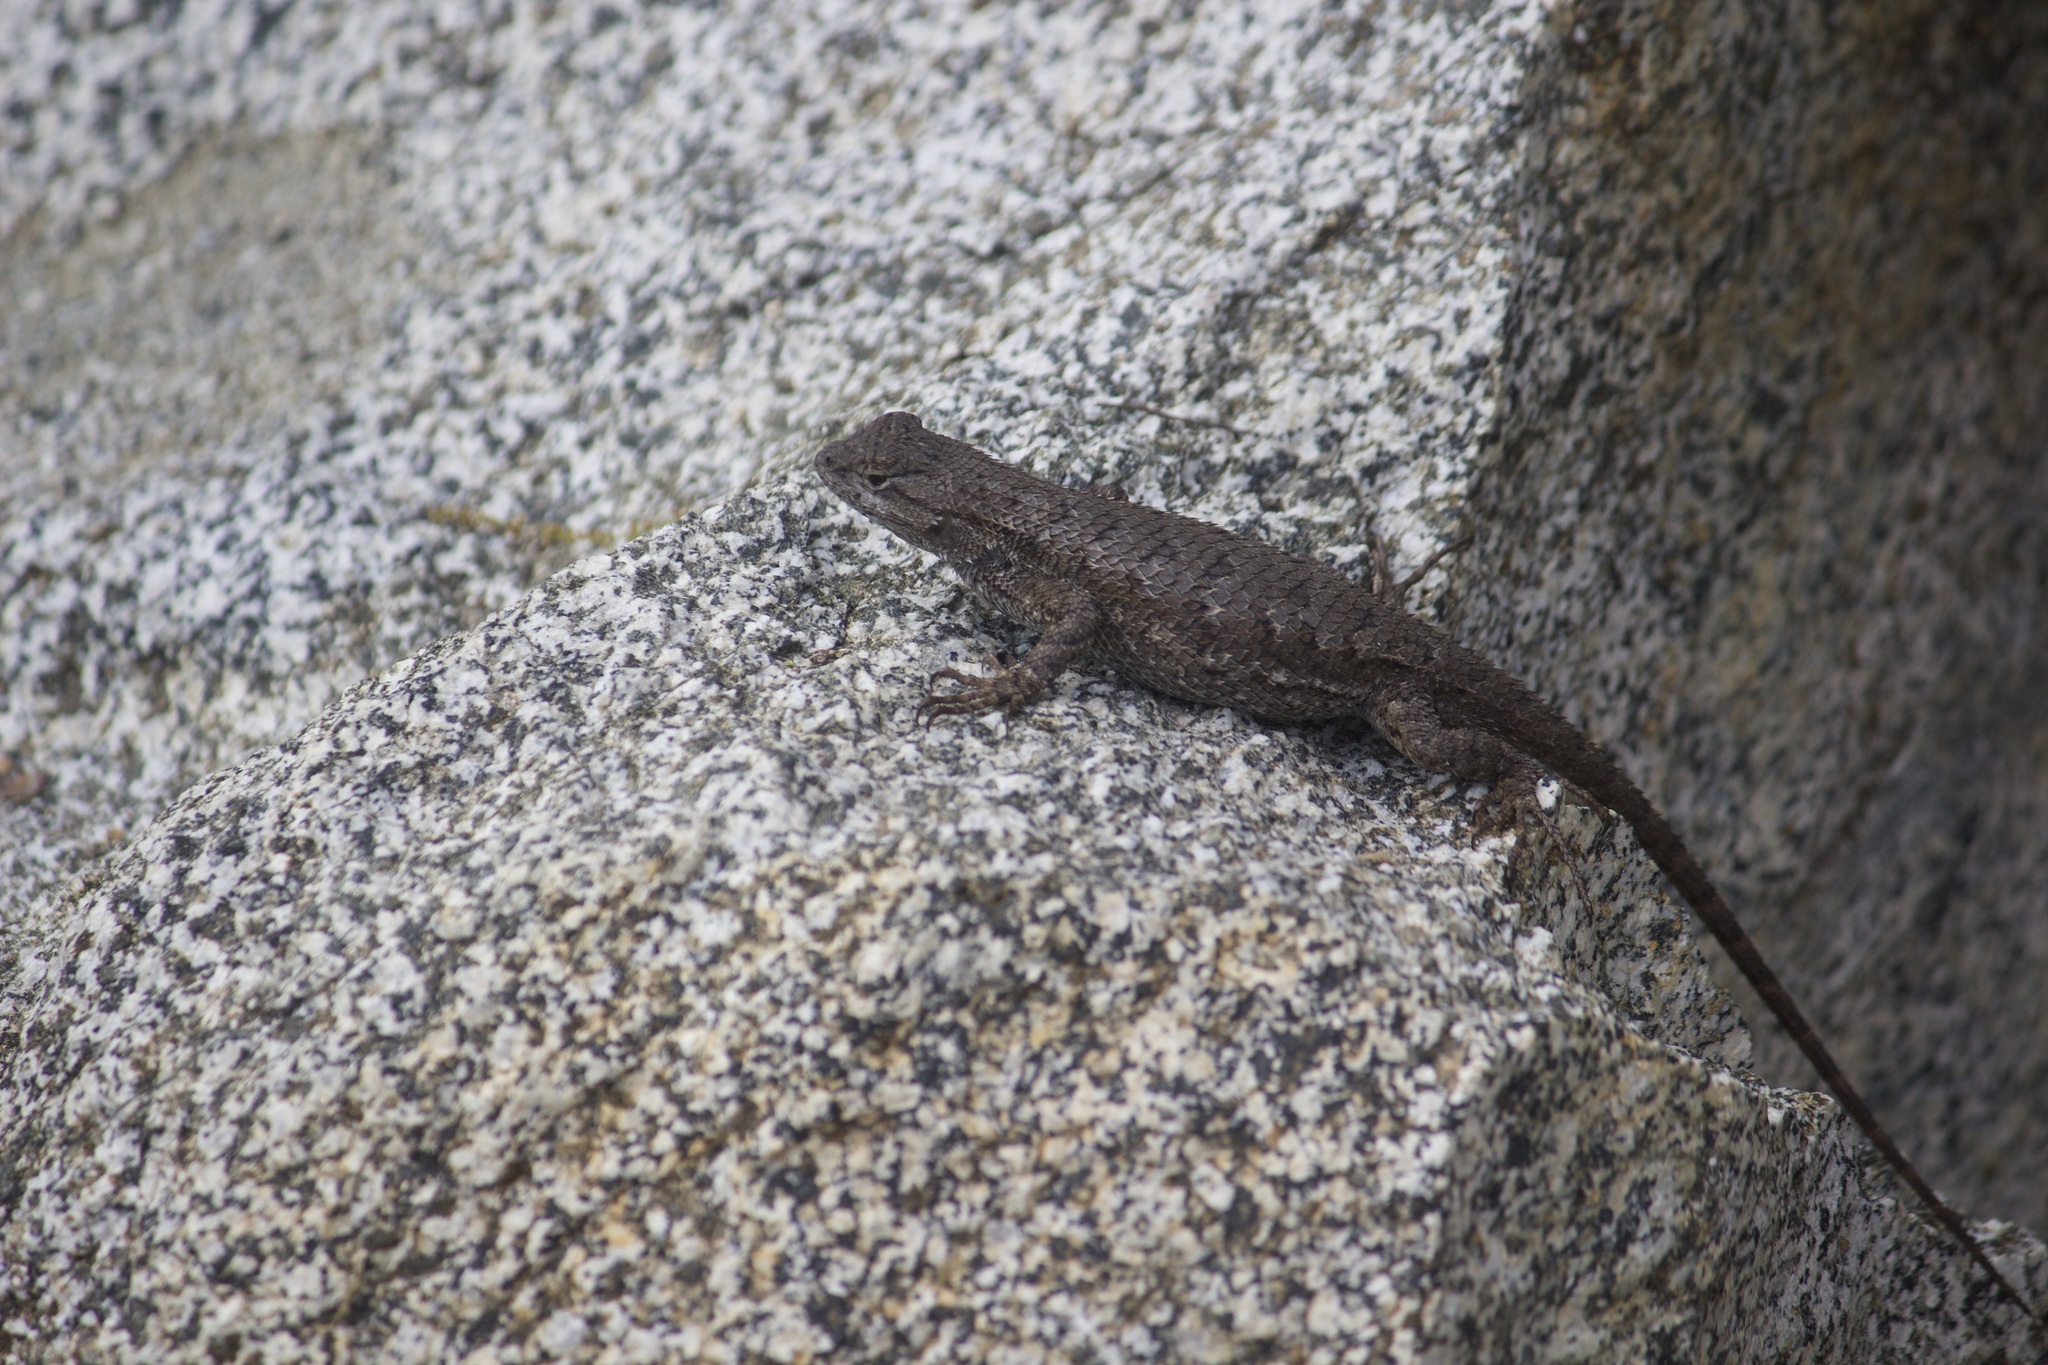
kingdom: Animalia
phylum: Chordata
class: Squamata
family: Phrynosomatidae
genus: Sceloporus
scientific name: Sceloporus occidentalis
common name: Western fence lizard
